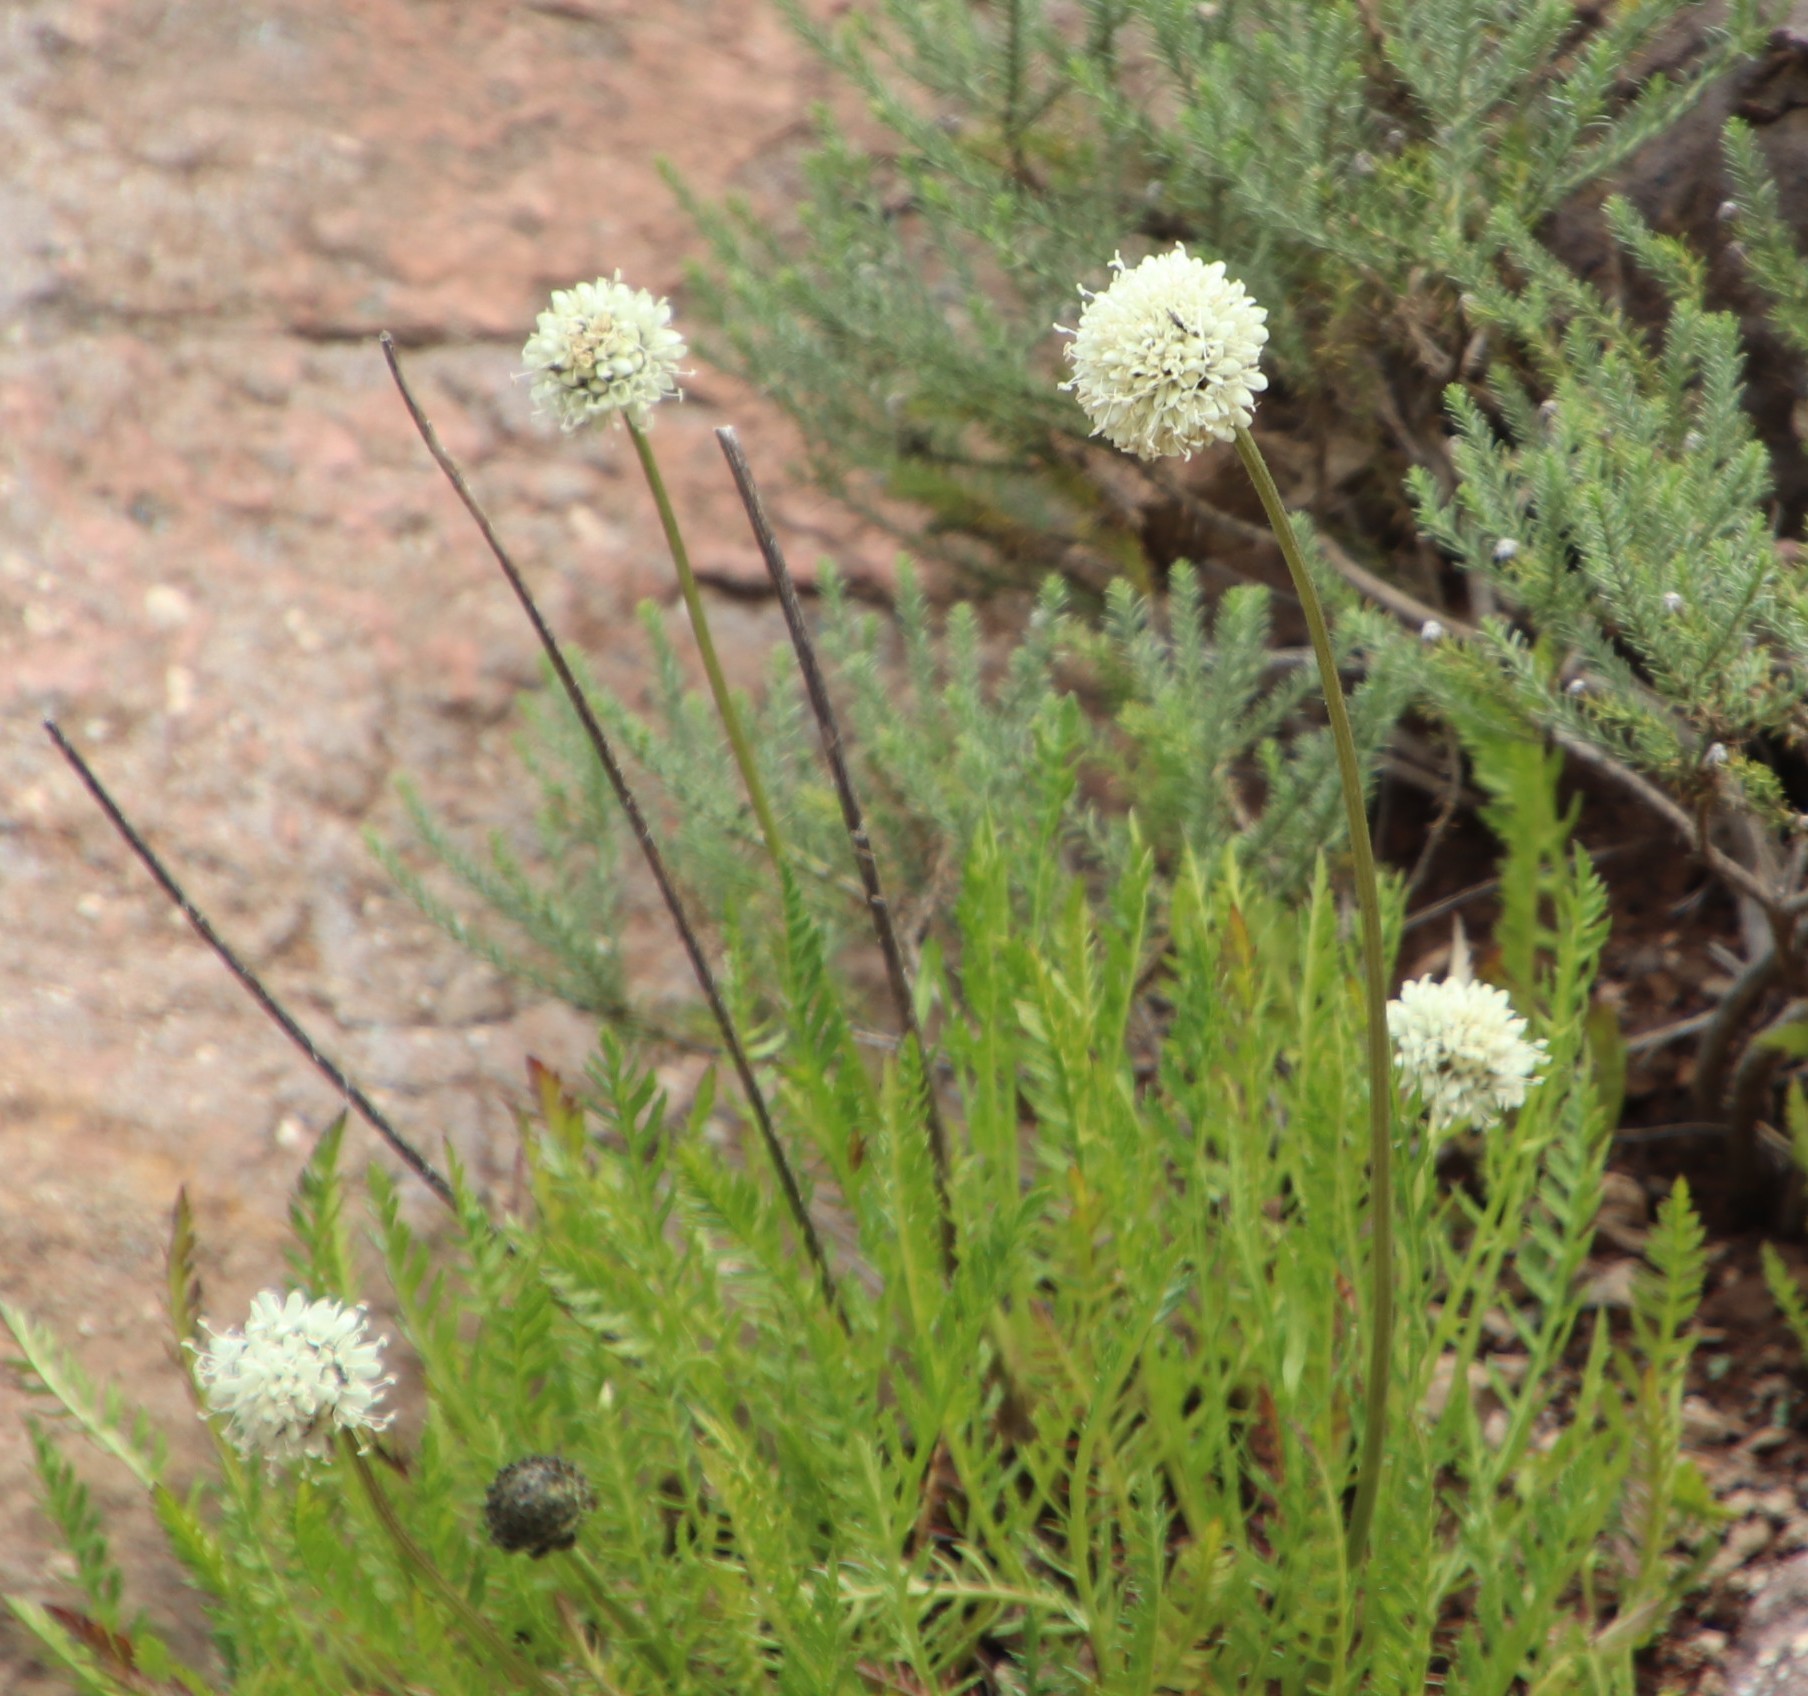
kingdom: Plantae
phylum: Tracheophyta
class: Magnoliopsida
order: Dipsacales
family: Caprifoliaceae
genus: Scabiosa
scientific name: Scabiosa columbaria
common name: Small scabious
